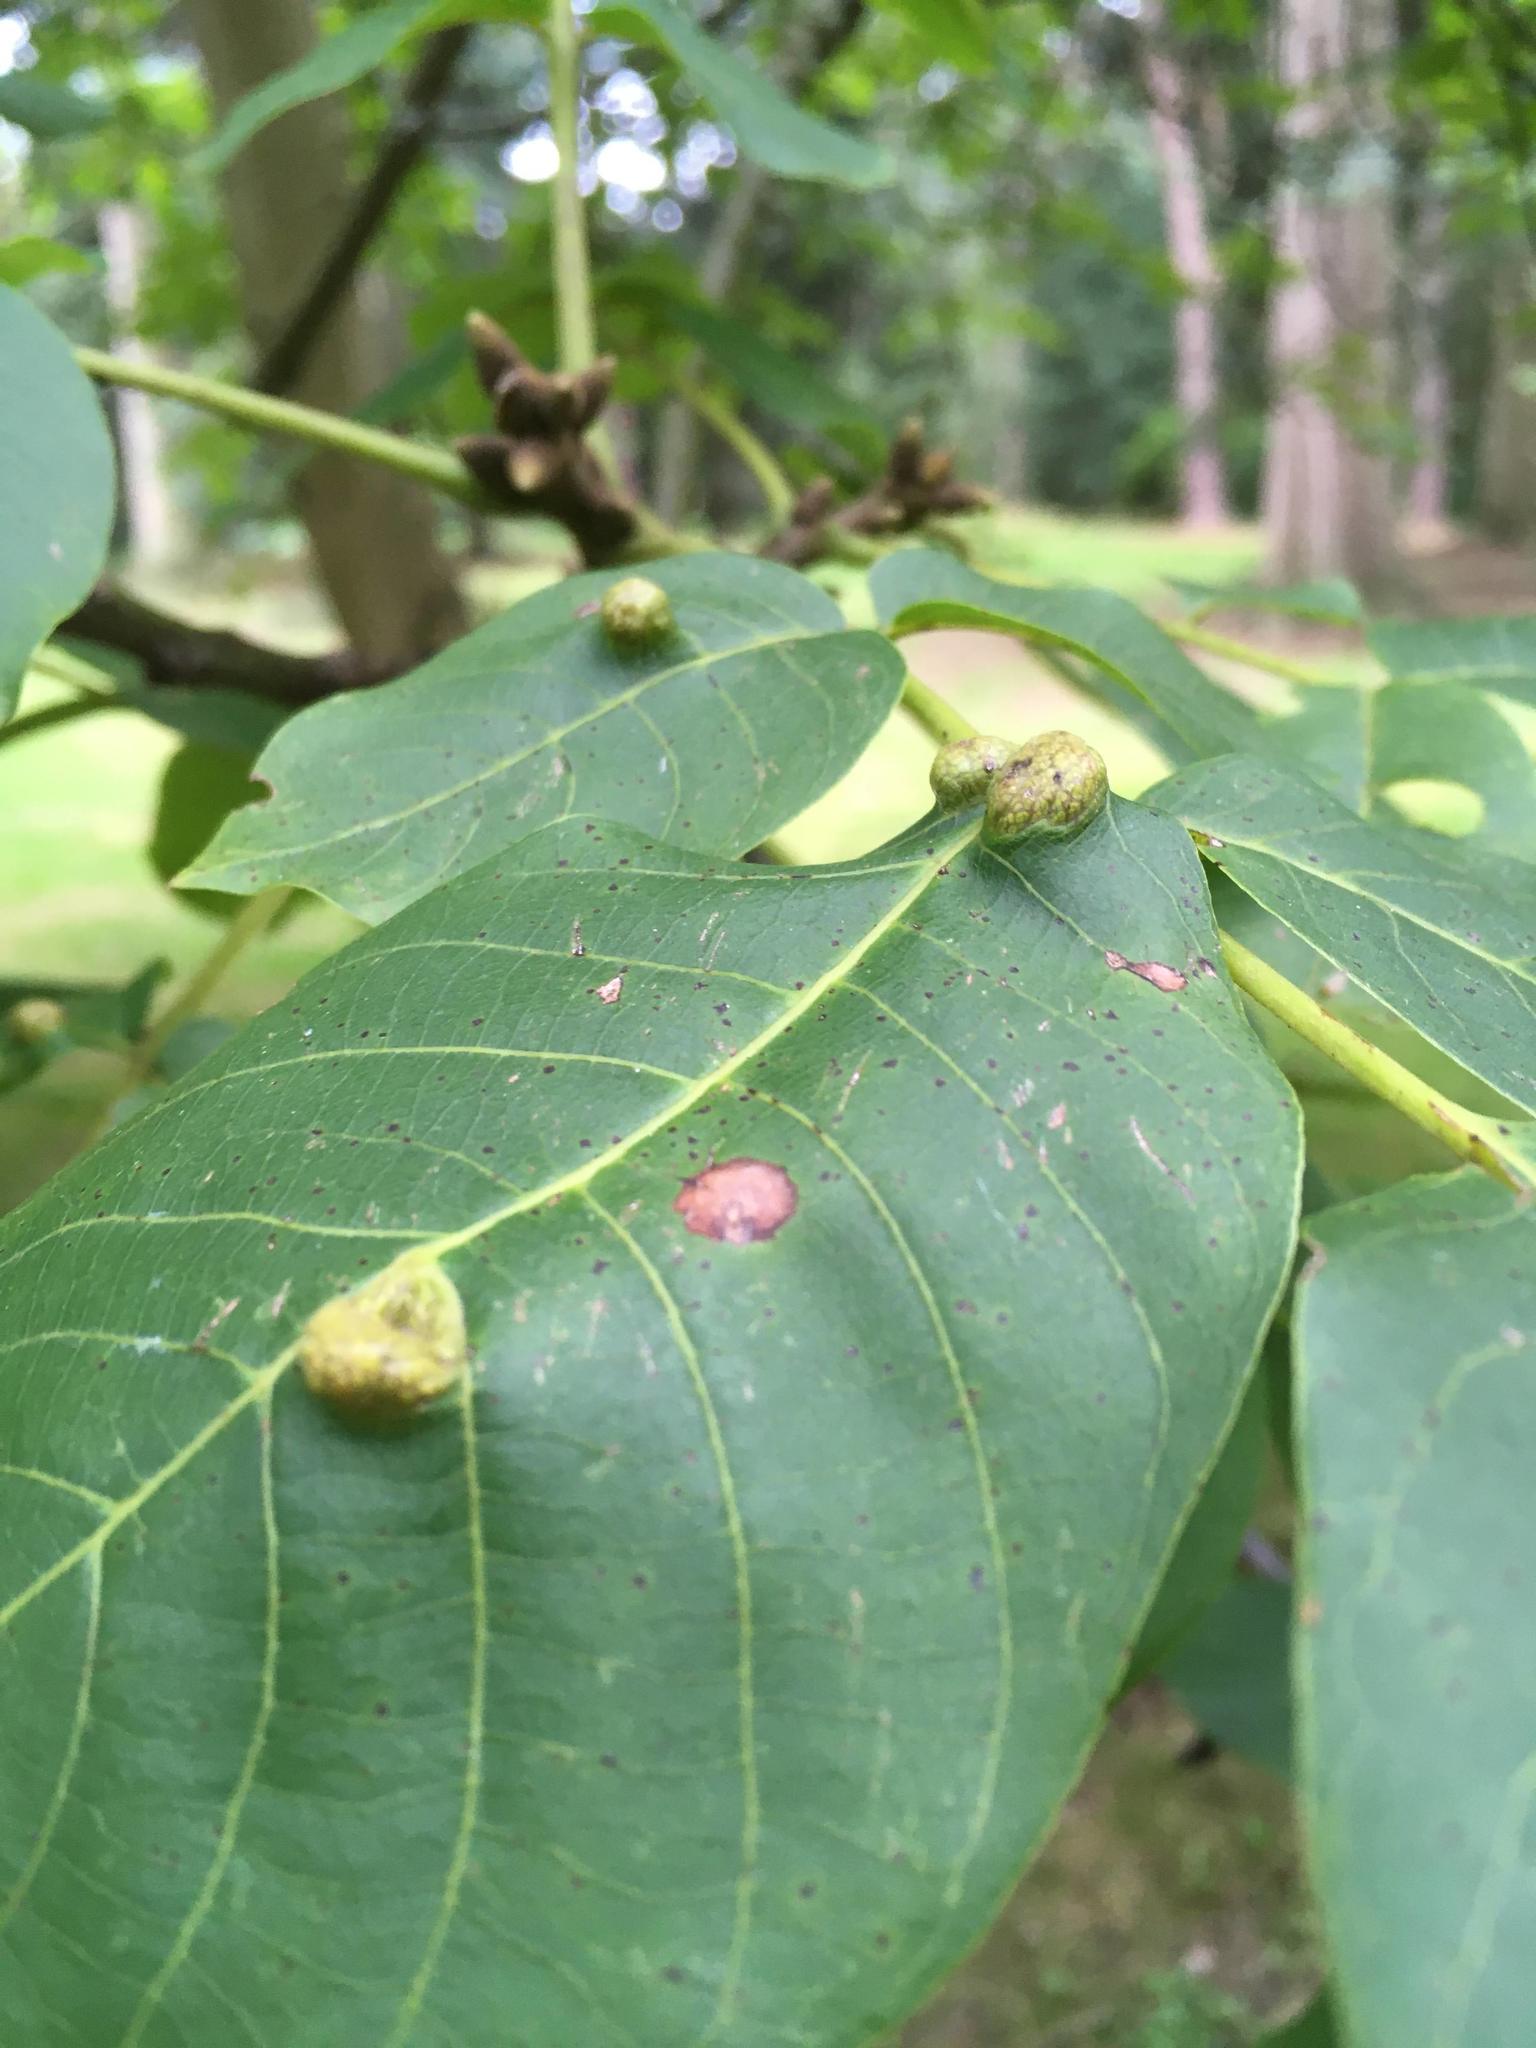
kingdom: Animalia
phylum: Arthropoda
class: Arachnida
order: Trombidiformes
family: Eriophyidae
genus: Aceria
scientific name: Aceria erinea
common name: Persian walnut erineum mite
